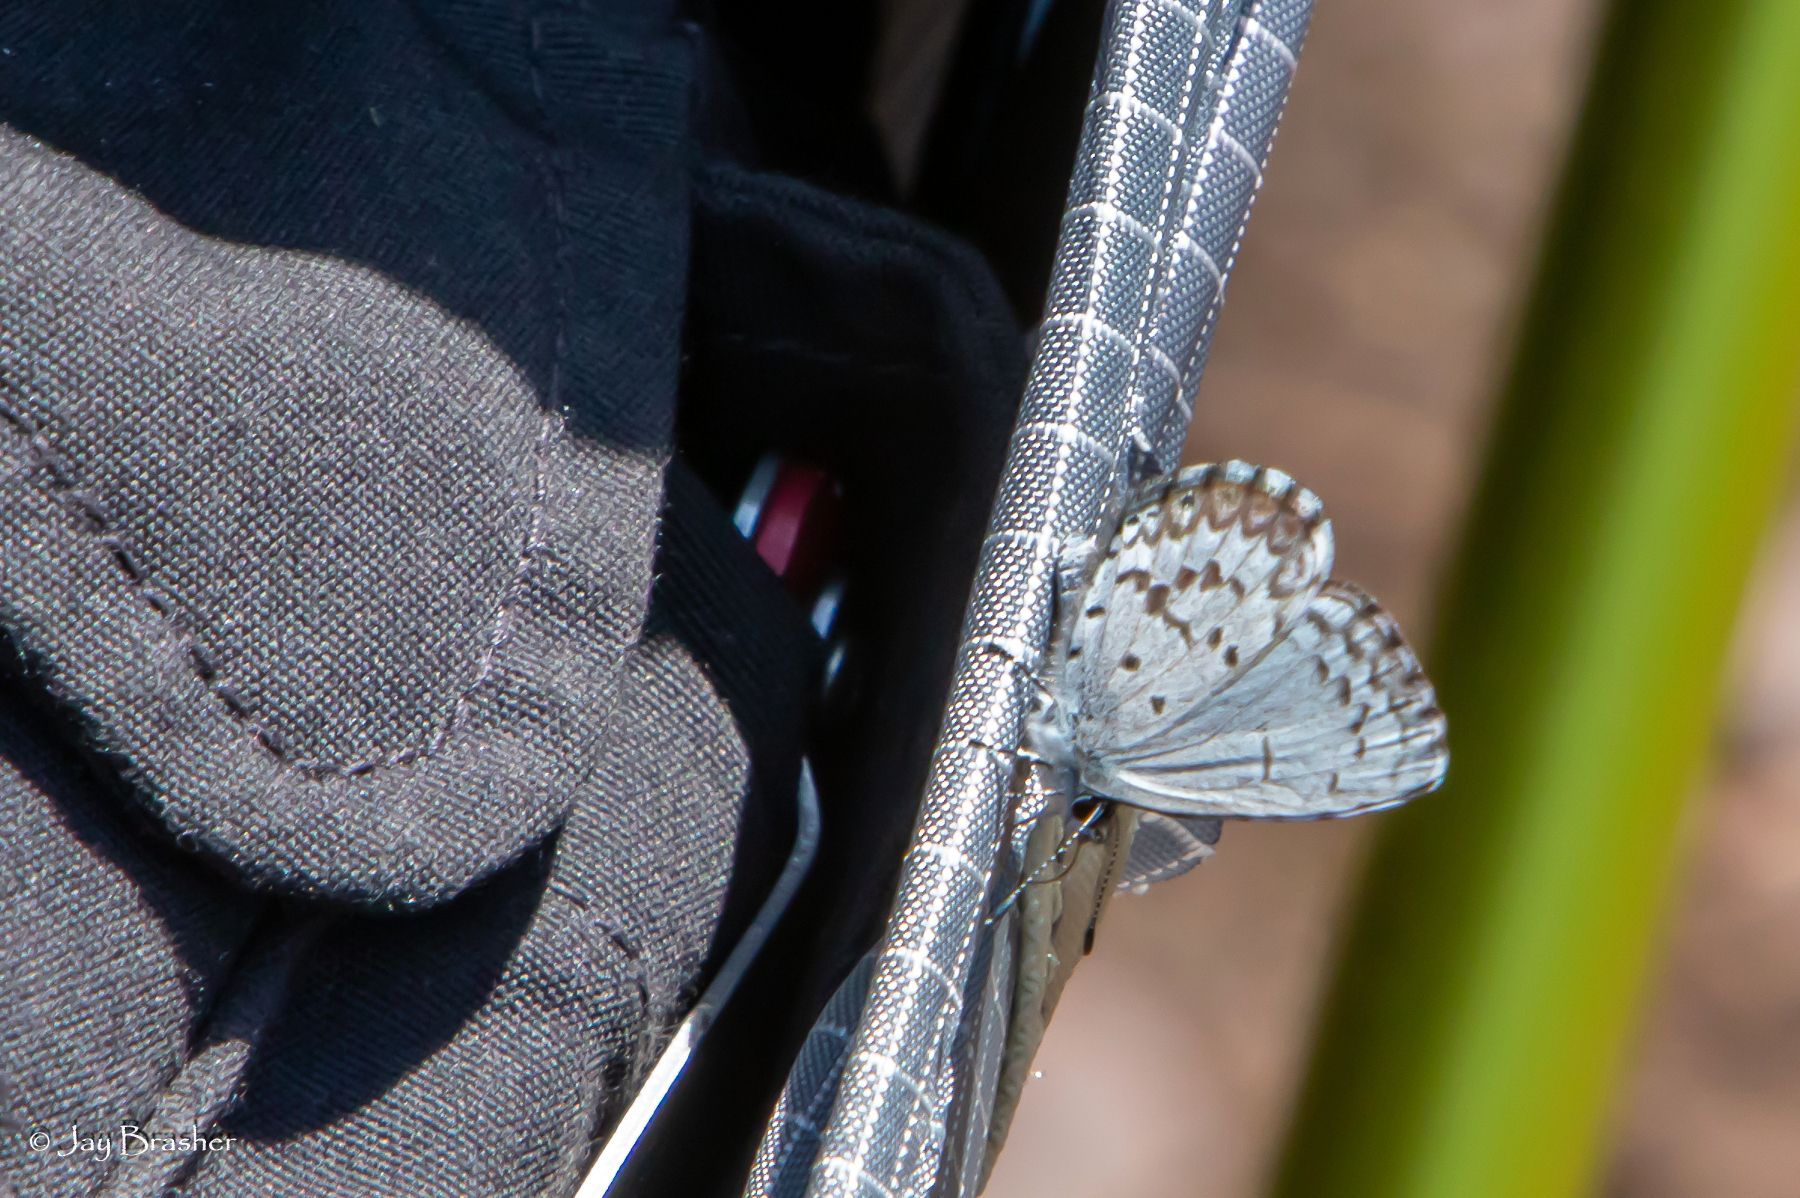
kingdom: Animalia
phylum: Arthropoda
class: Insecta
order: Lepidoptera
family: Lycaenidae
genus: Celastrina
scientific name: Celastrina lucia
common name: Lucia azure
